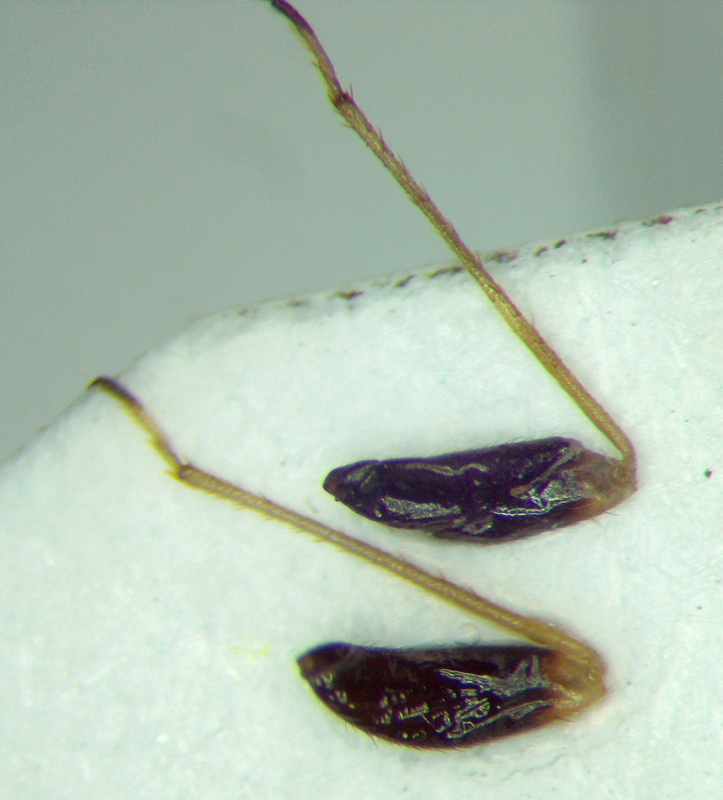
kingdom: Animalia
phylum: Arthropoda
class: Insecta
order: Hemiptera
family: Miridae
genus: Halticus
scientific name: Halticus apterus
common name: Fleahopper
